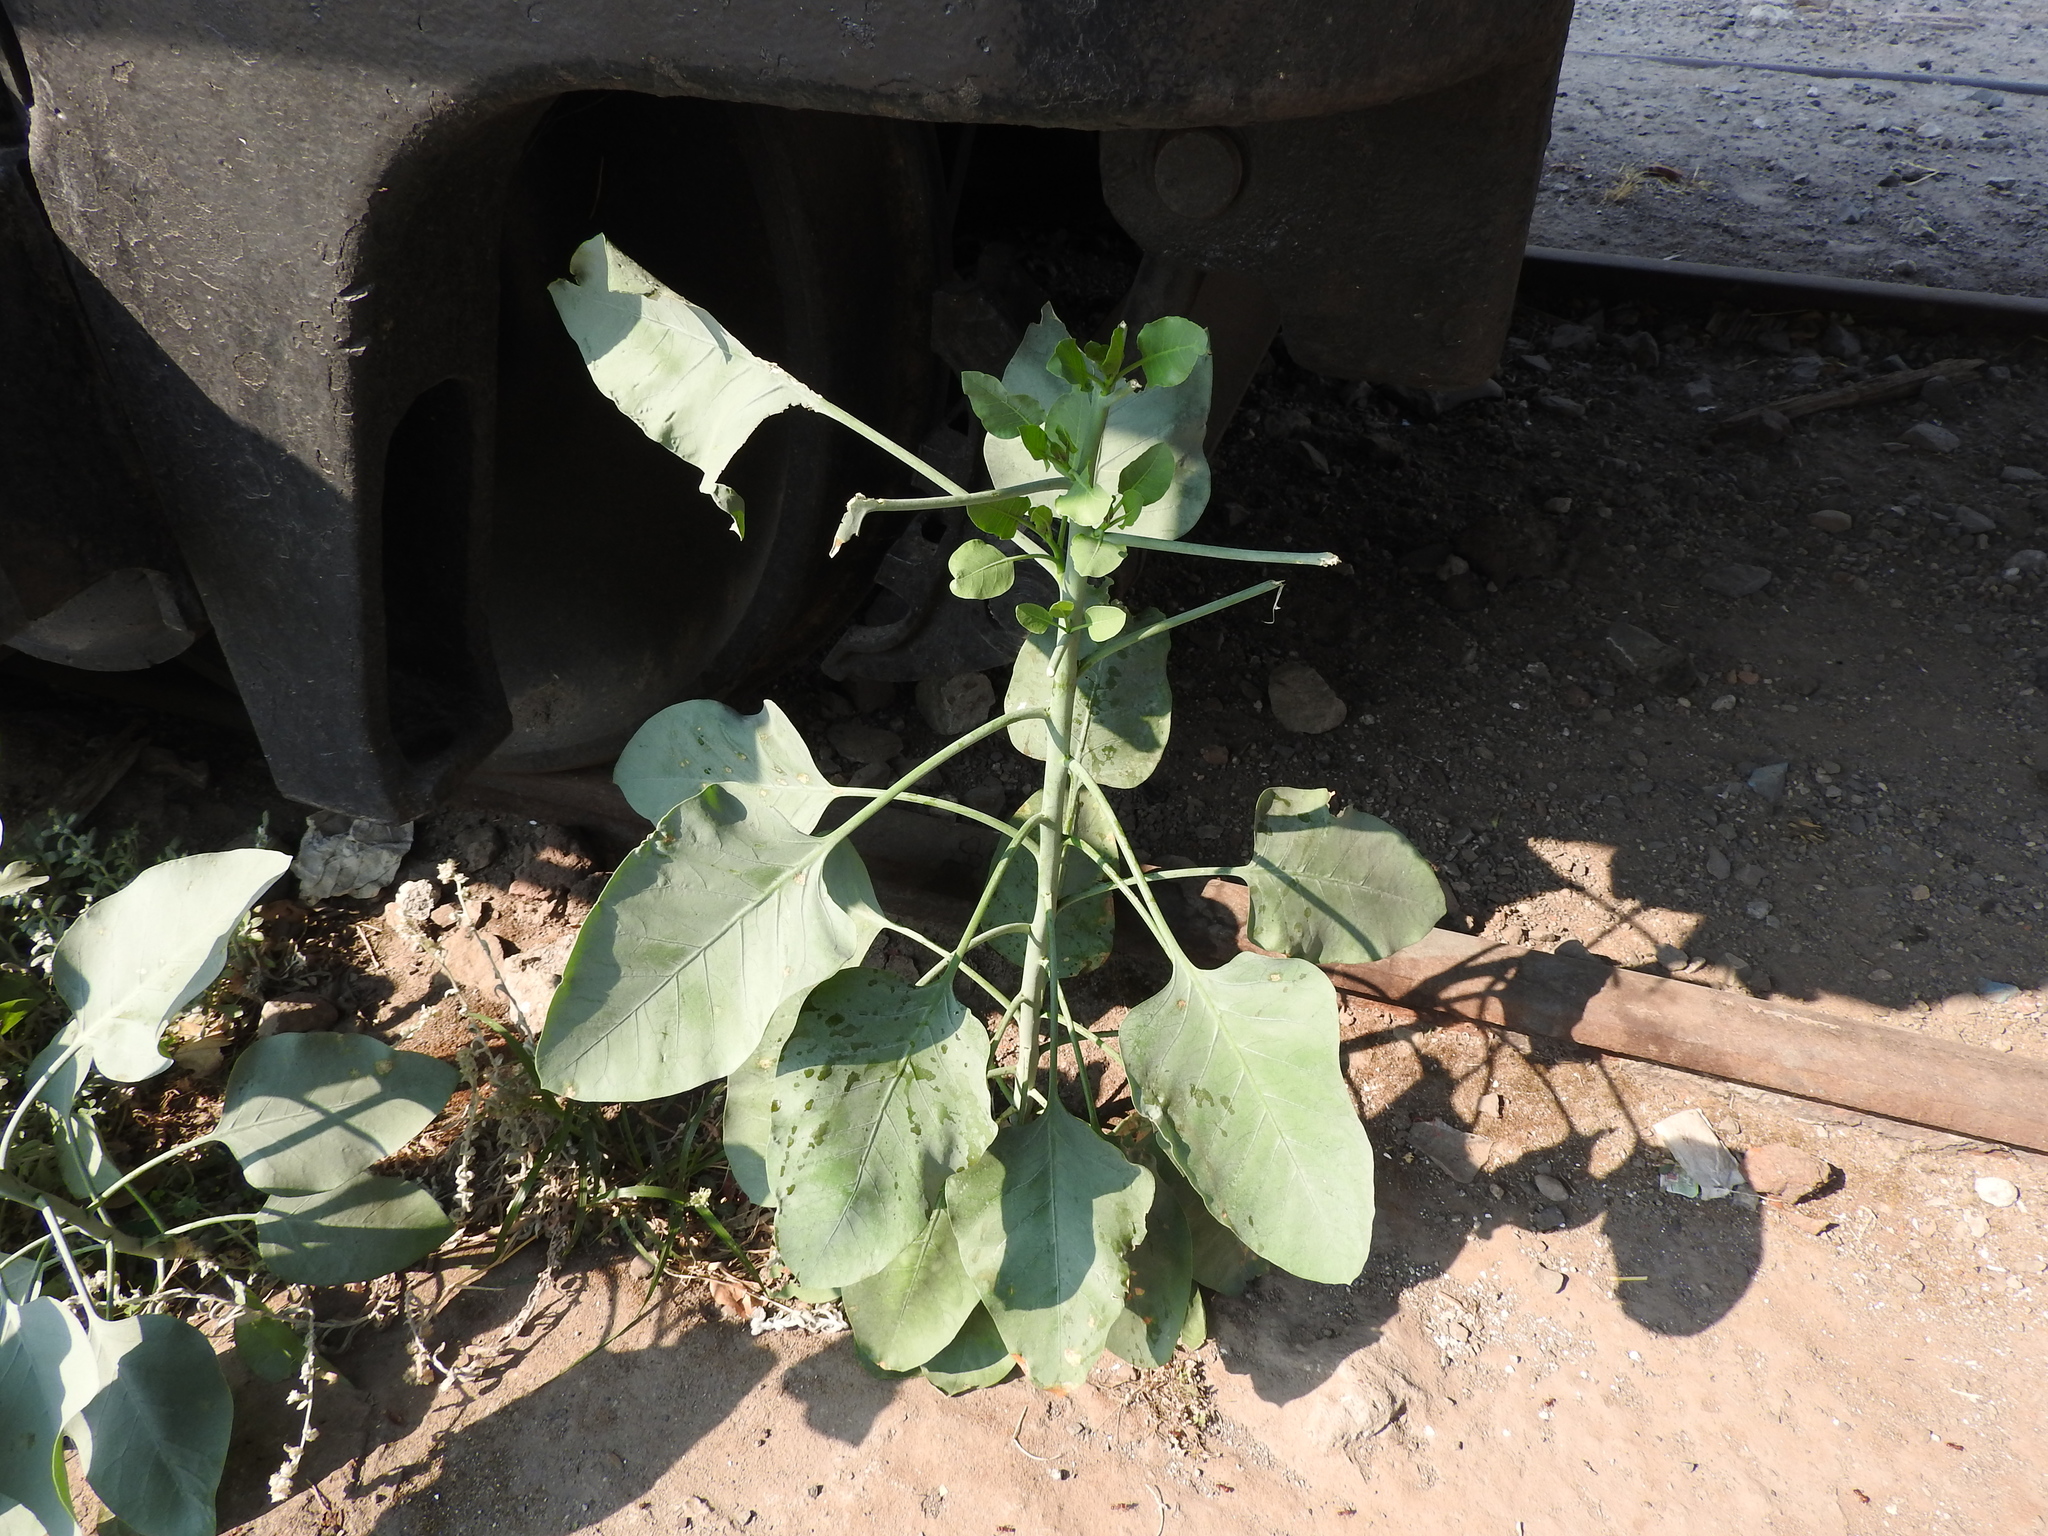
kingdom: Plantae
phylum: Tracheophyta
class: Magnoliopsida
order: Solanales
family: Solanaceae
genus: Nicotiana
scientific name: Nicotiana glauca
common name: Tree tobacco
